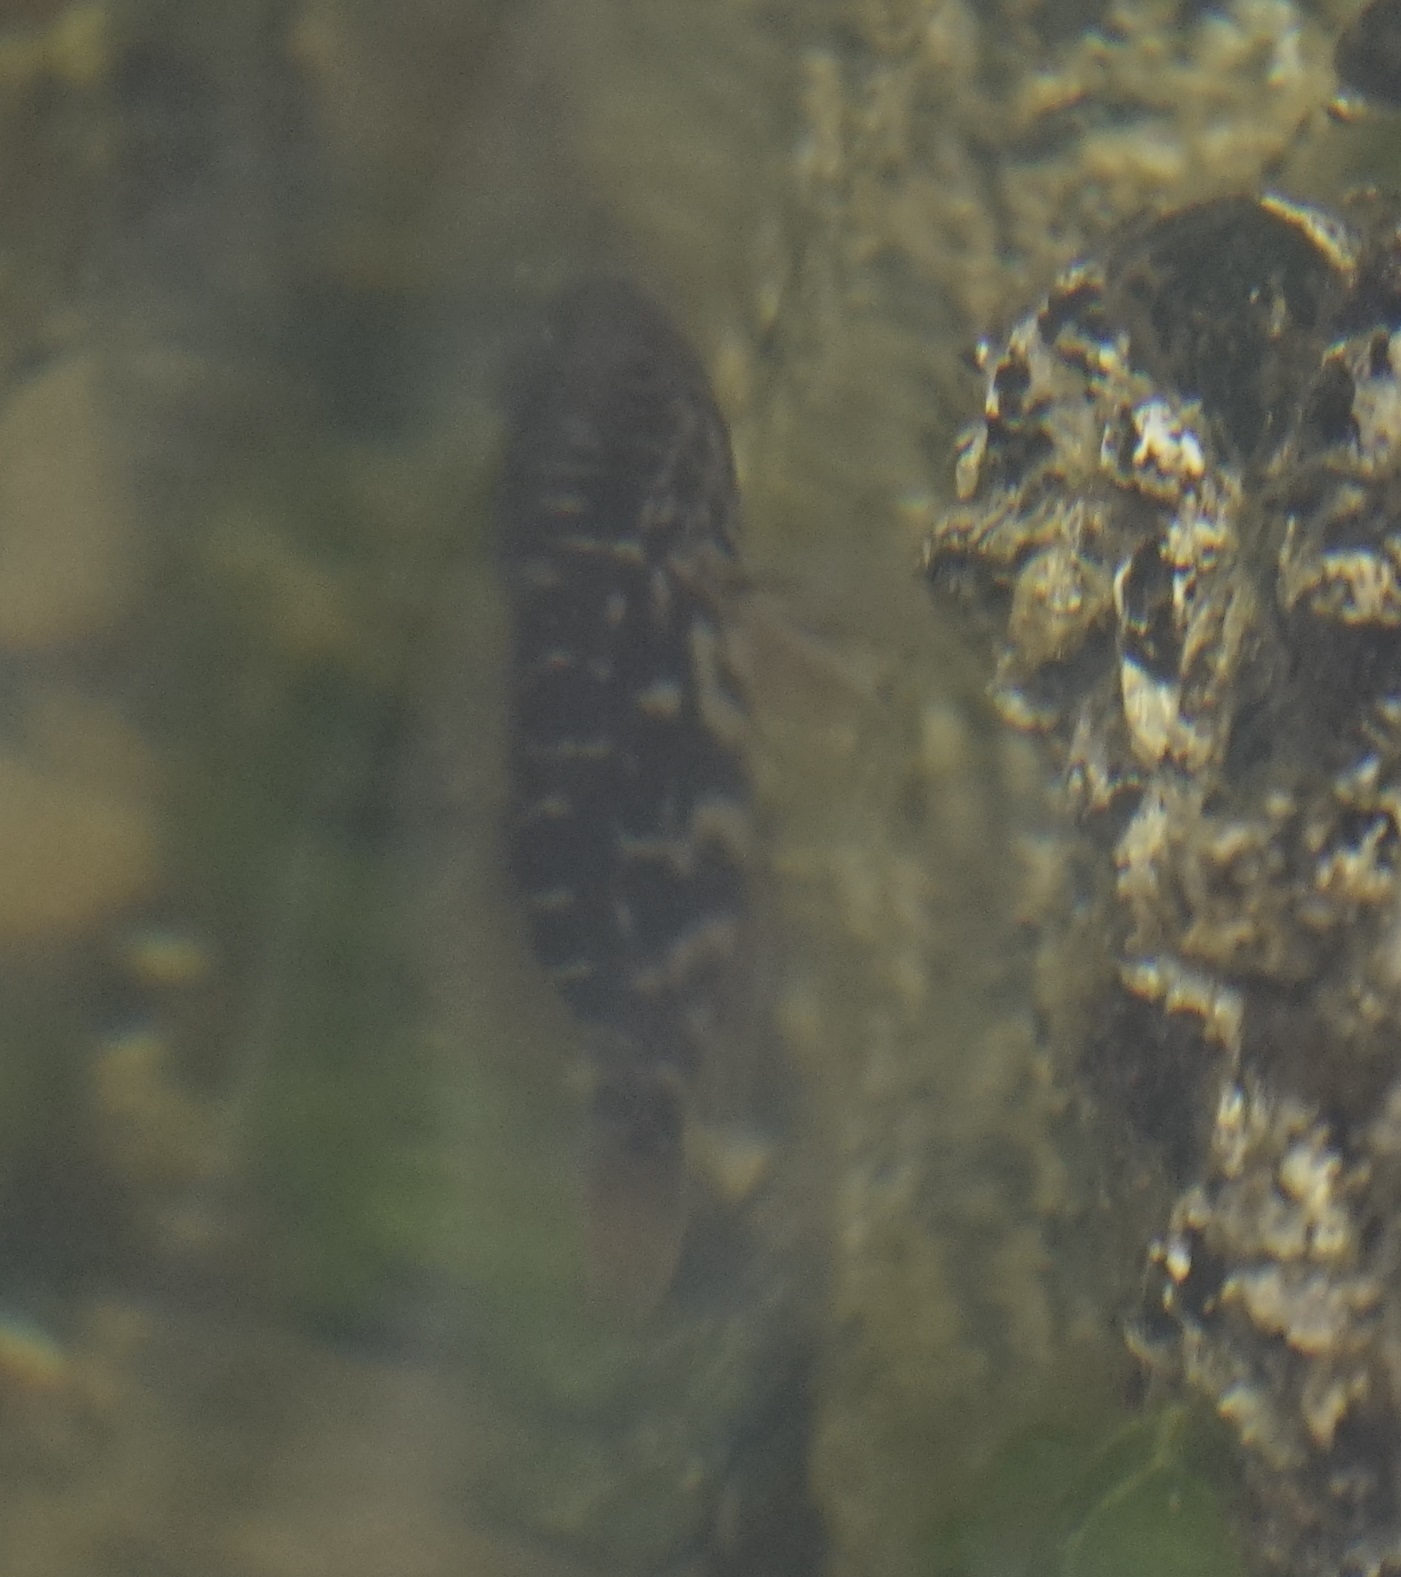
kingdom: Animalia
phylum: Chordata
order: Perciformes
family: Serranidae
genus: Hypoplectrodes
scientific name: Hypoplectrodes jamesoni
